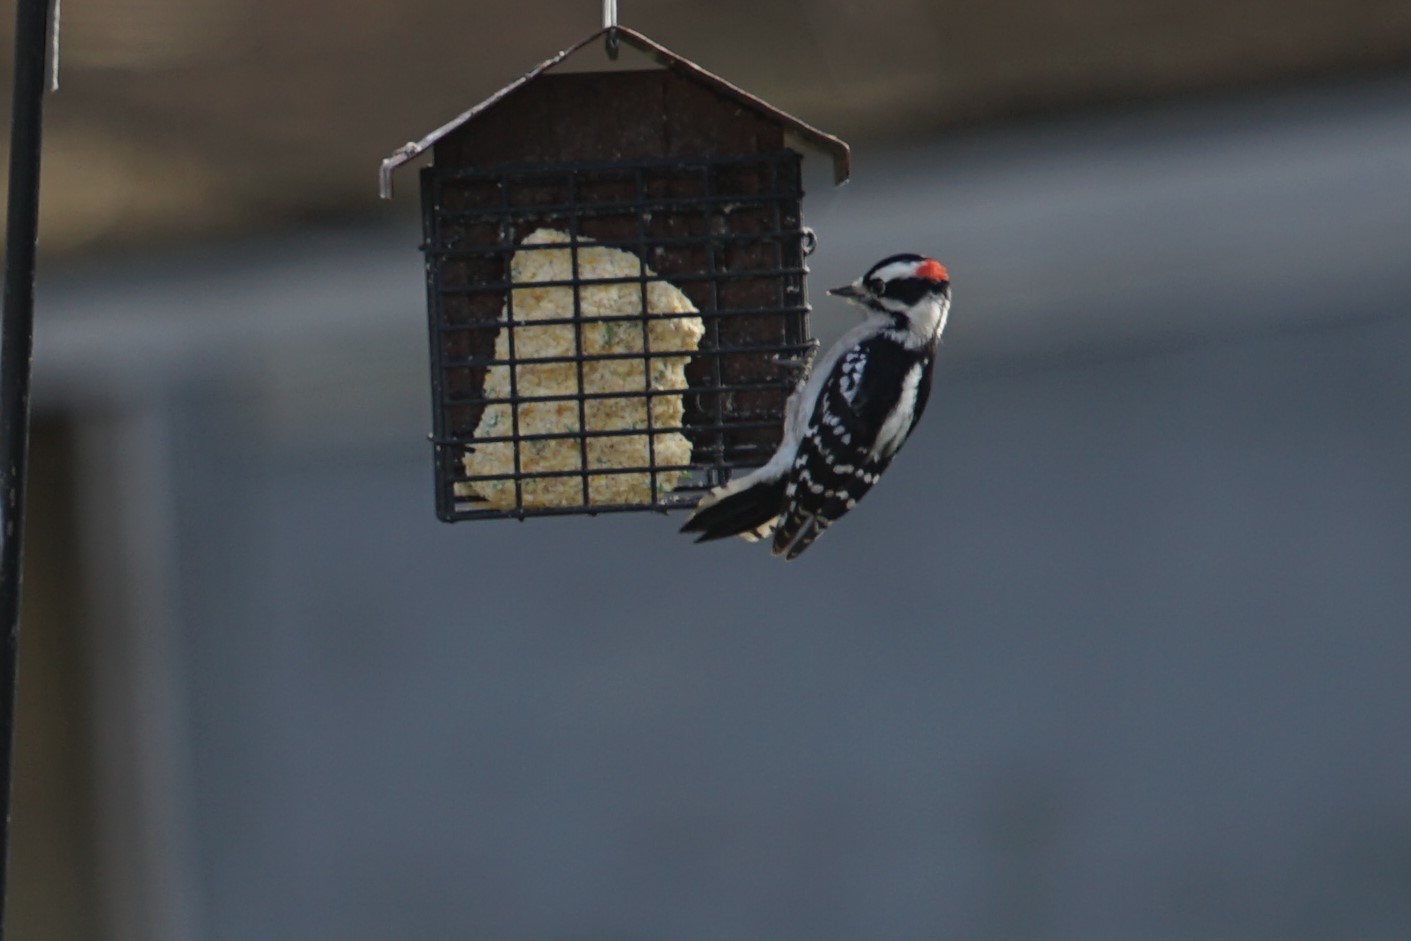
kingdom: Animalia
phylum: Chordata
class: Aves
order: Piciformes
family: Picidae
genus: Dryobates
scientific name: Dryobates pubescens
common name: Downy woodpecker
